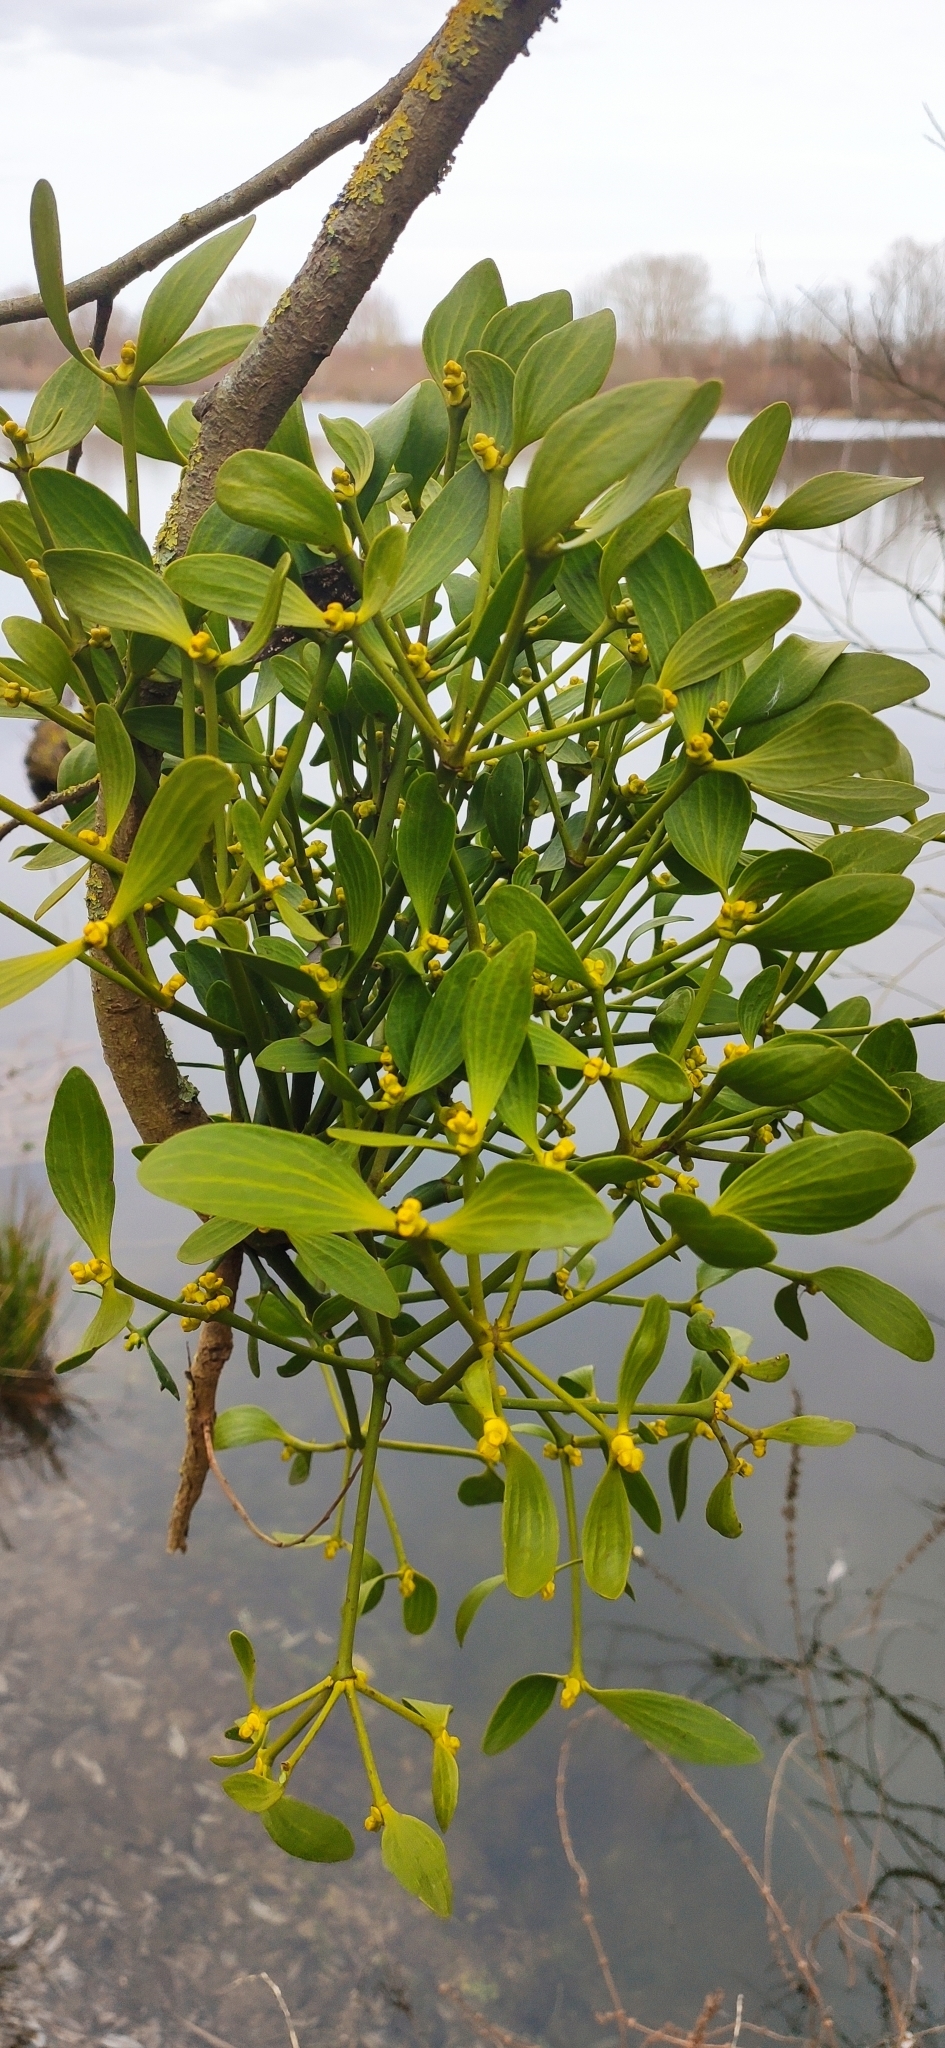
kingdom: Plantae
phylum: Tracheophyta
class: Magnoliopsida
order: Santalales
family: Viscaceae
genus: Viscum
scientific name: Viscum album
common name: Mistletoe
